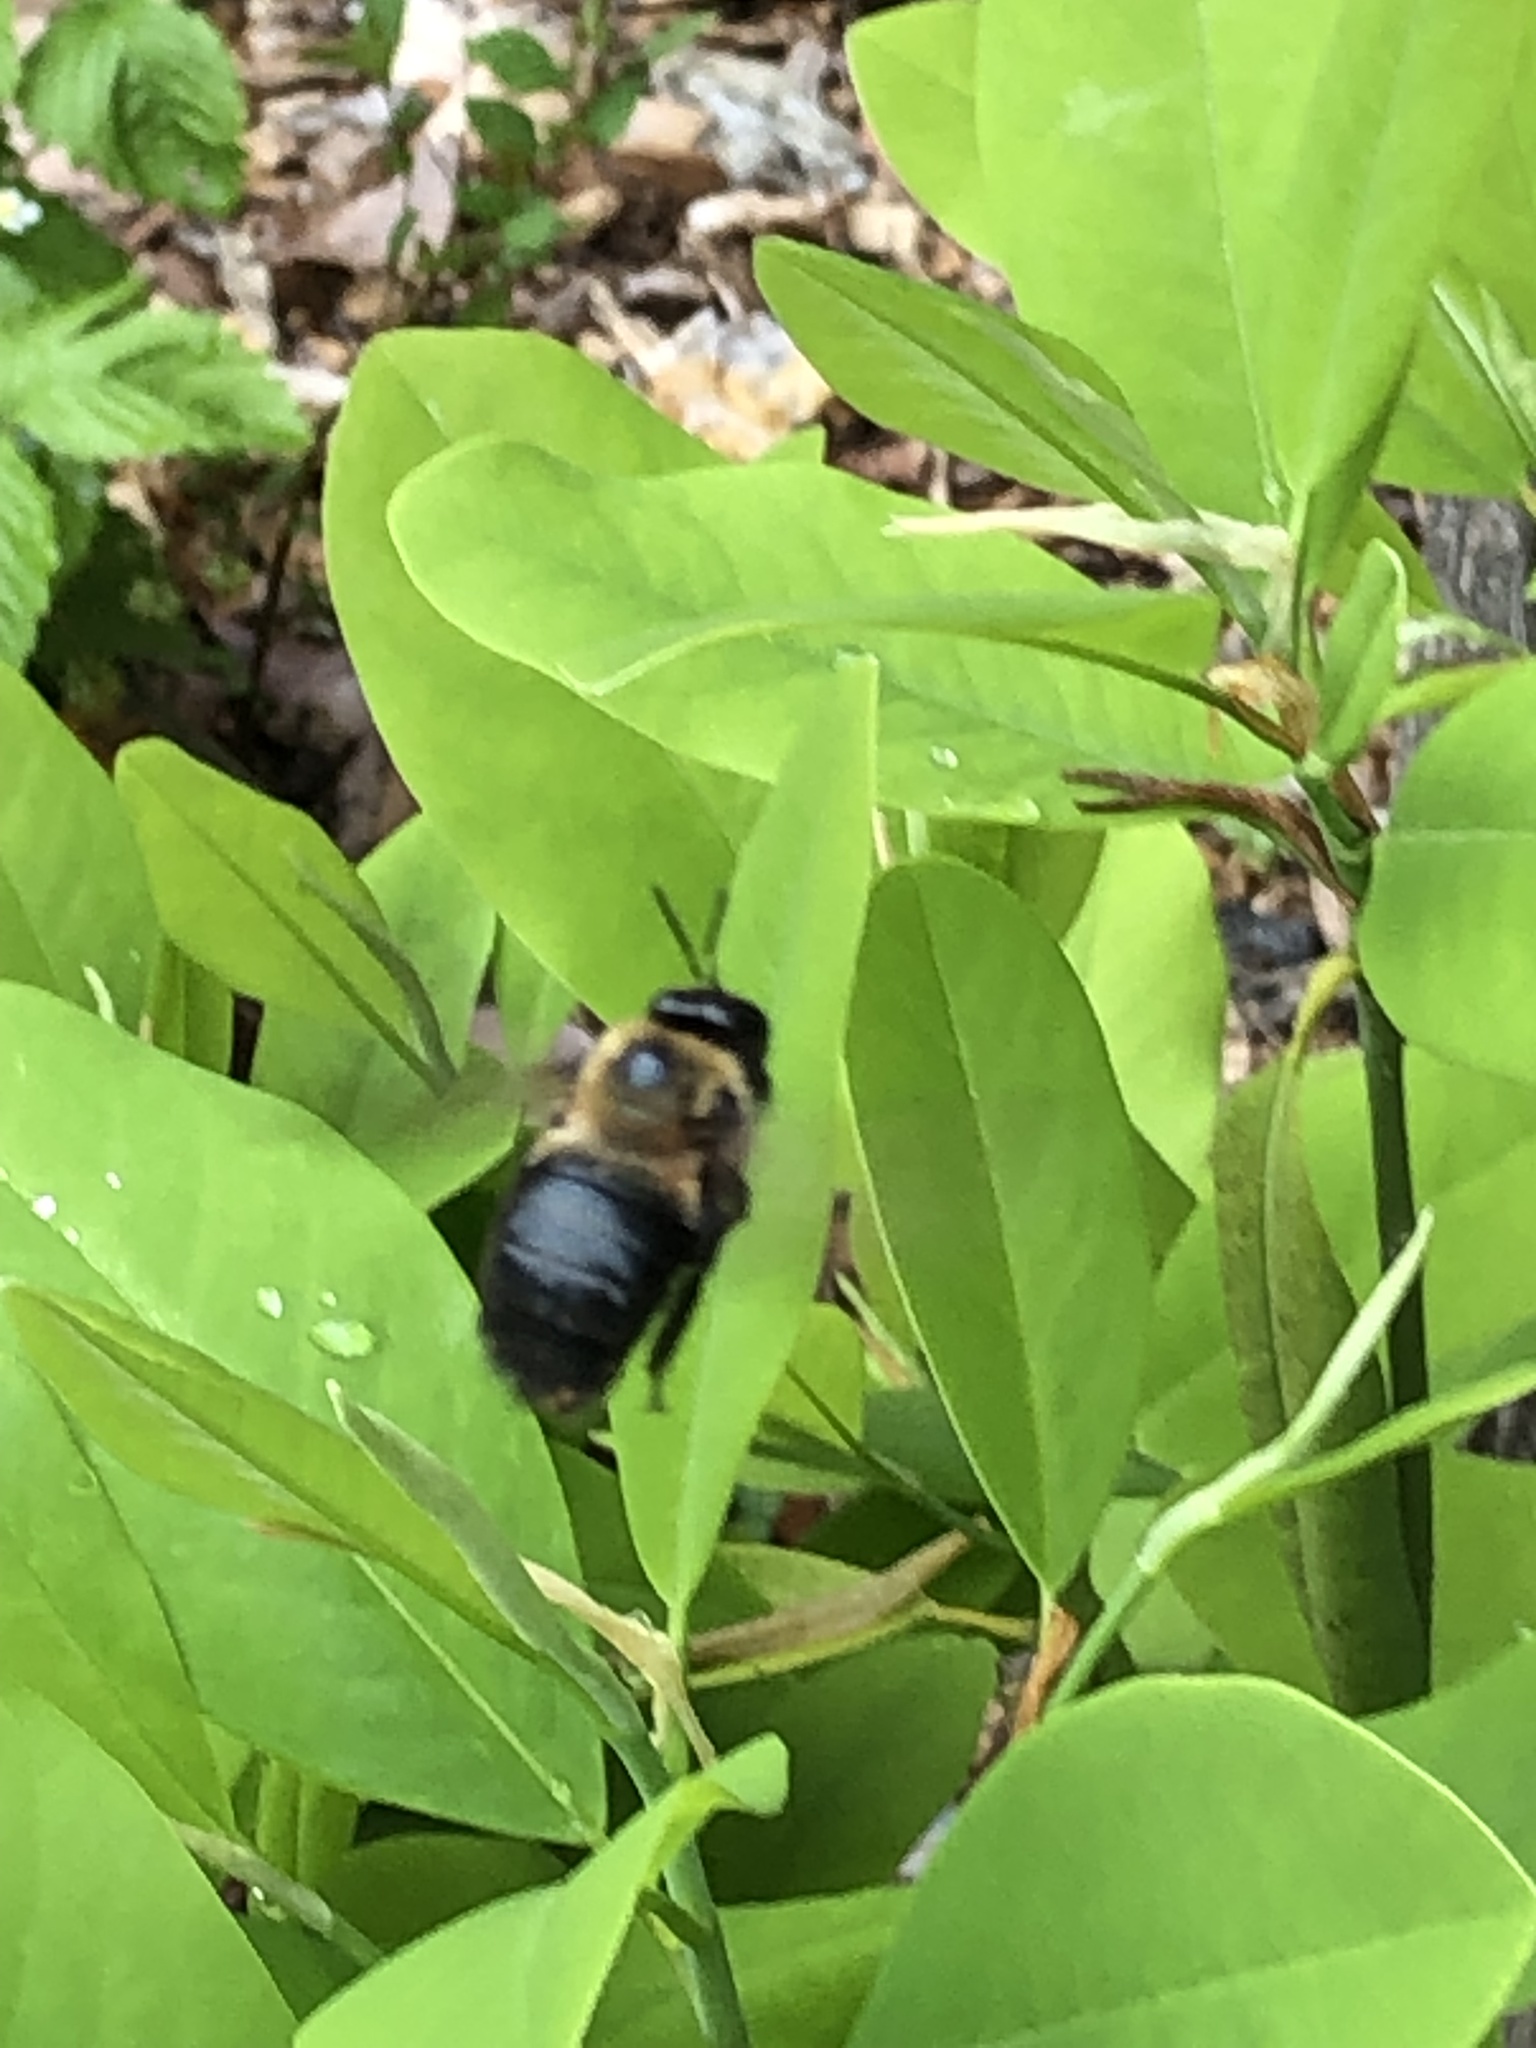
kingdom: Animalia
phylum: Arthropoda
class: Insecta
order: Hymenoptera
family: Apidae
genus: Xylocopa
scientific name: Xylocopa virginica
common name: Carpenter bee
